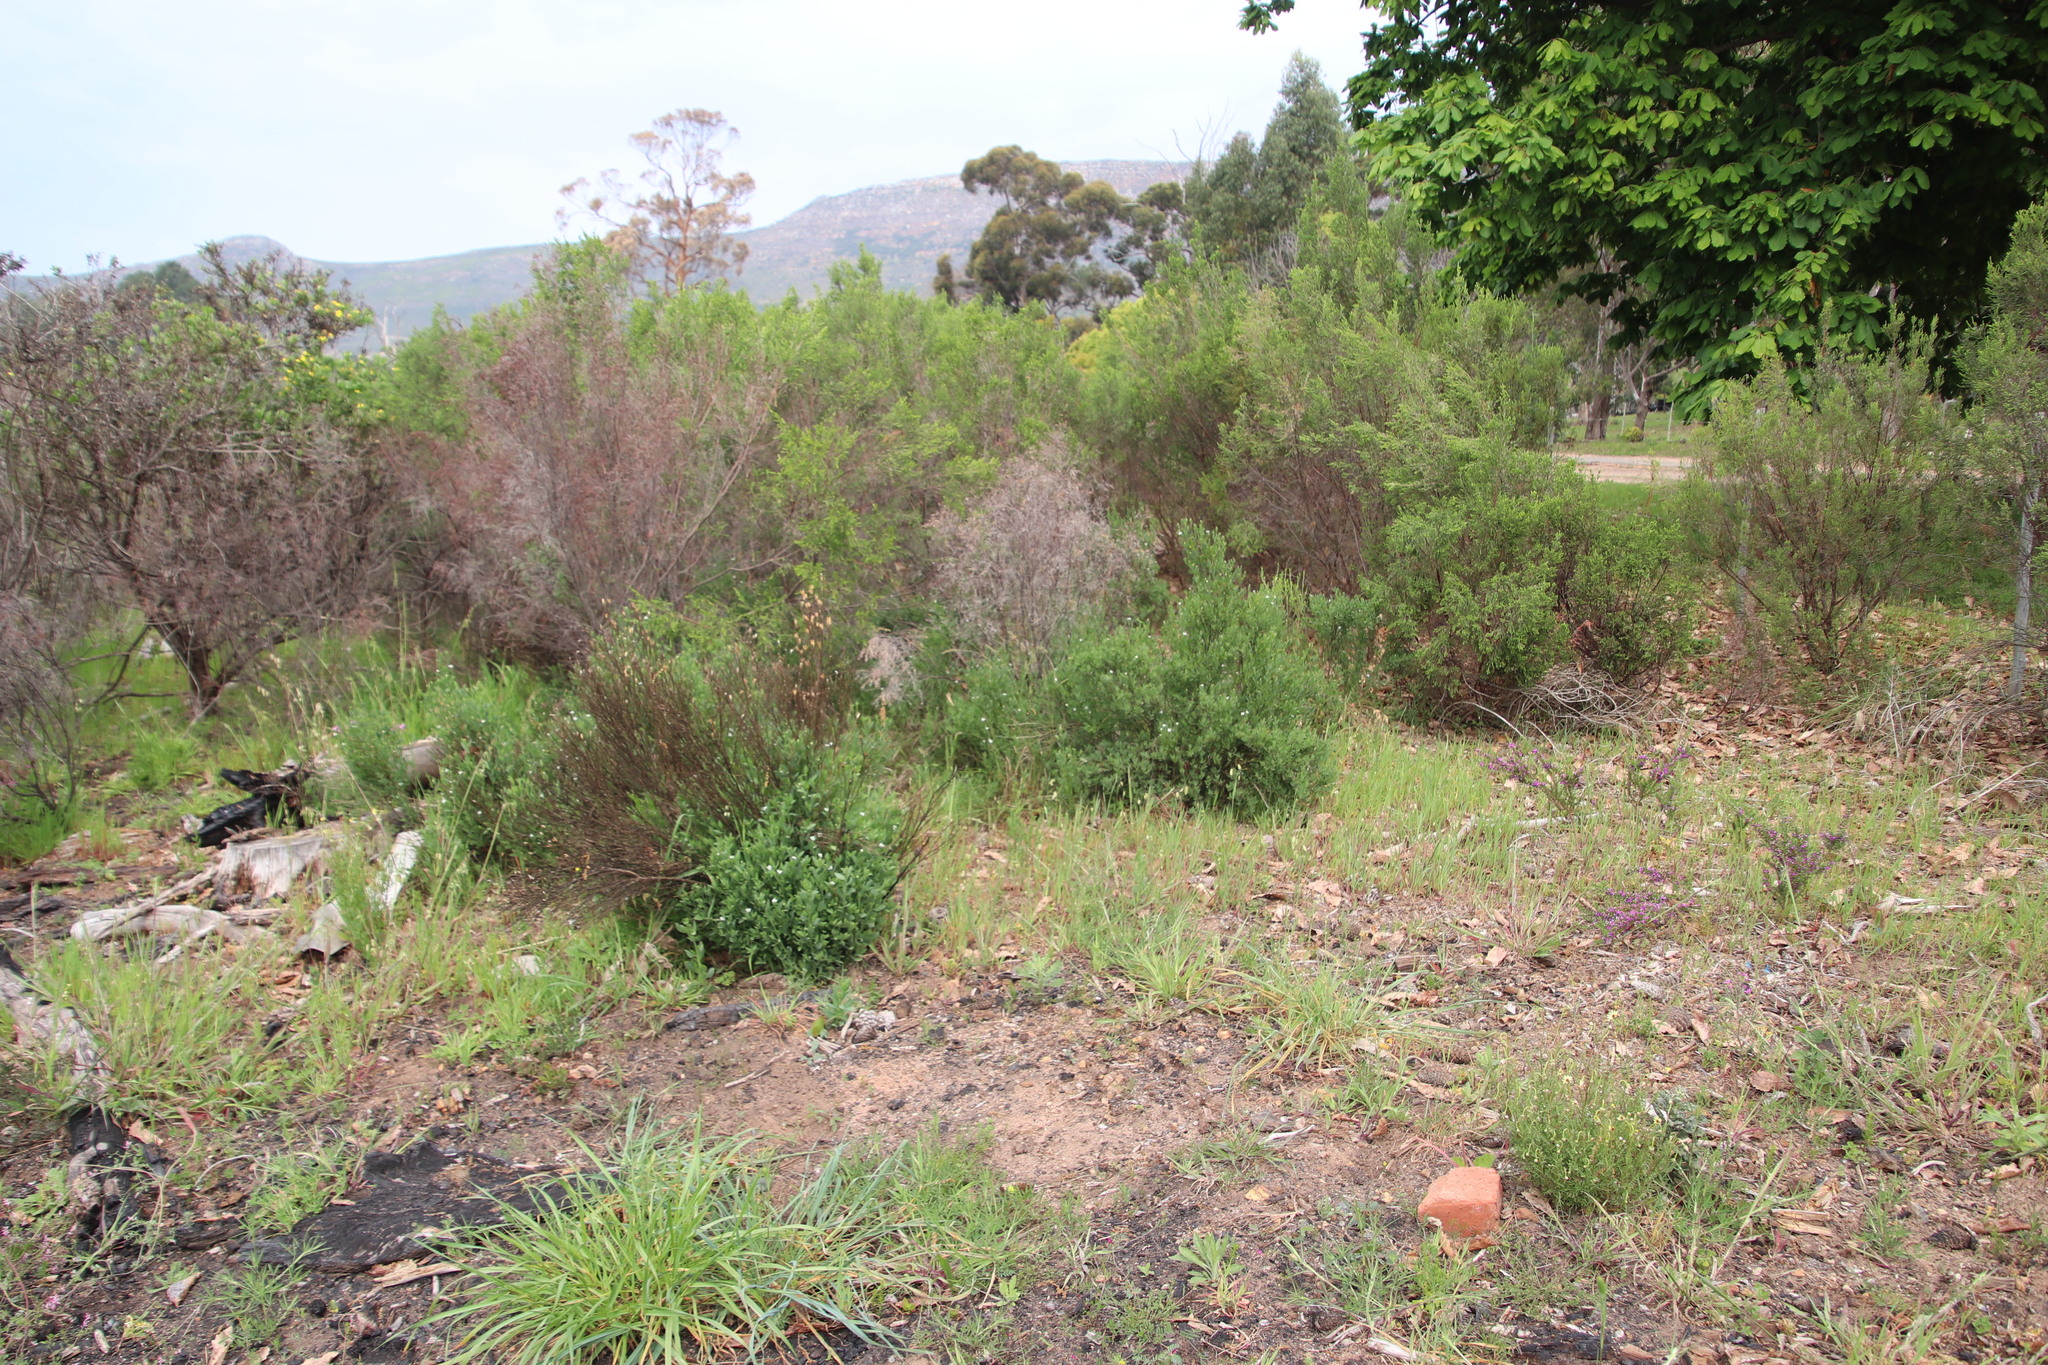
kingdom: Plantae
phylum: Tracheophyta
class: Magnoliopsida
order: Solanales
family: Montiniaceae
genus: Montinia
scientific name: Montinia caryophyllacea
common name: Wild clove-bush
